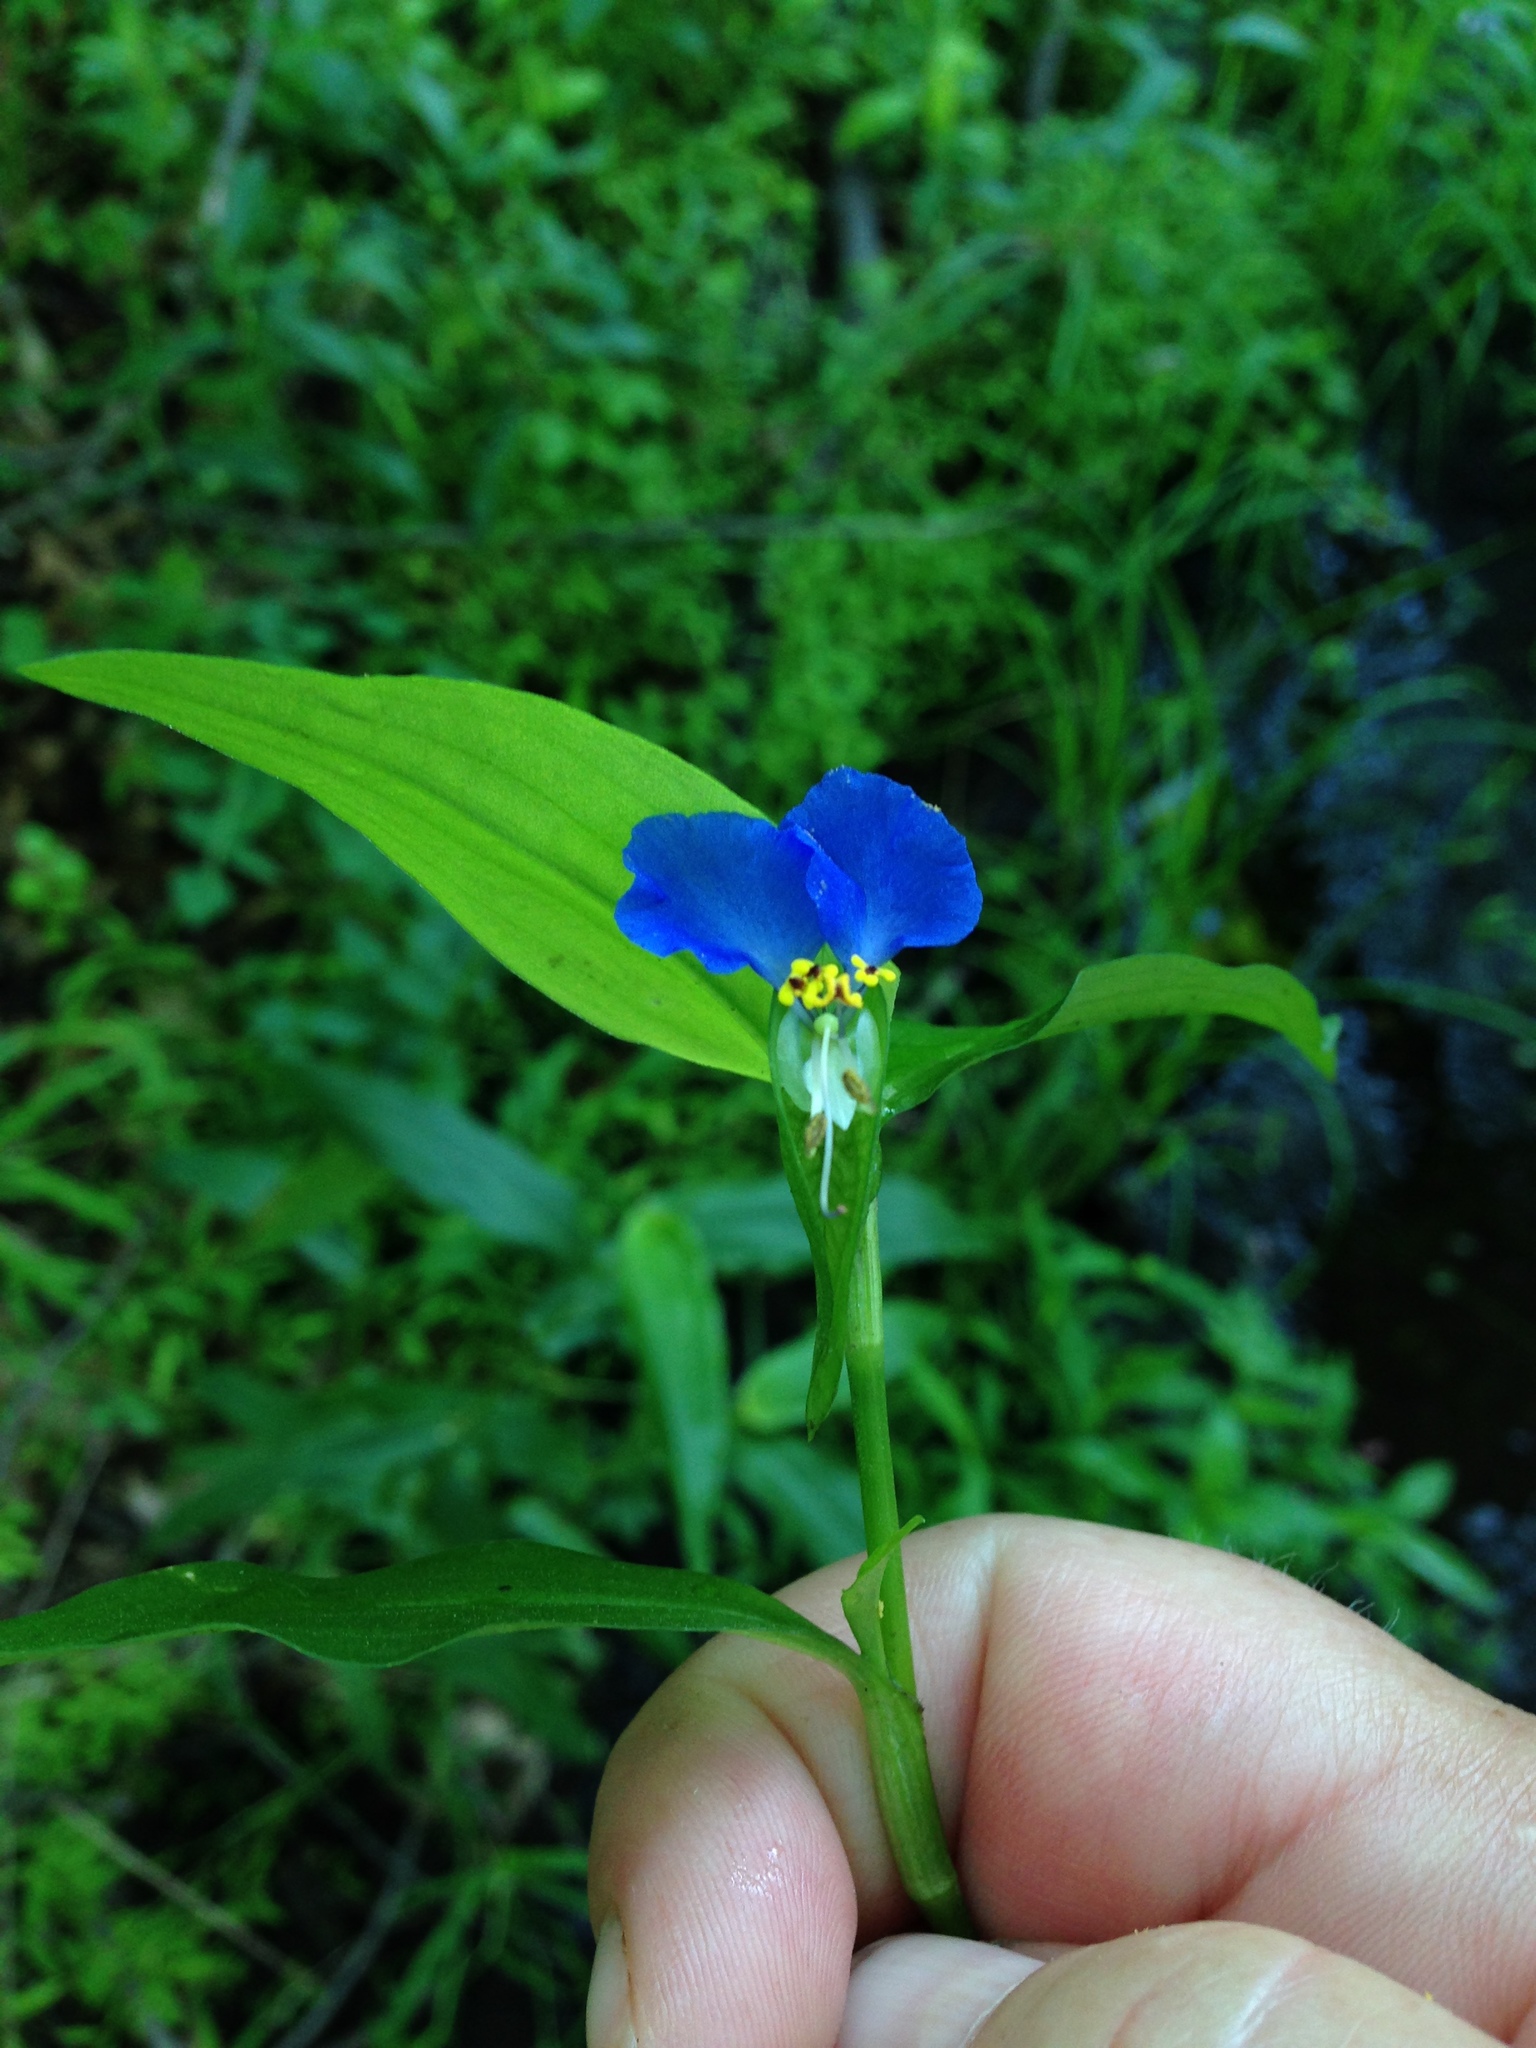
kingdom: Plantae
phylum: Tracheophyta
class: Liliopsida
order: Commelinales
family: Commelinaceae
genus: Commelina
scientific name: Commelina communis
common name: Asiatic dayflower
